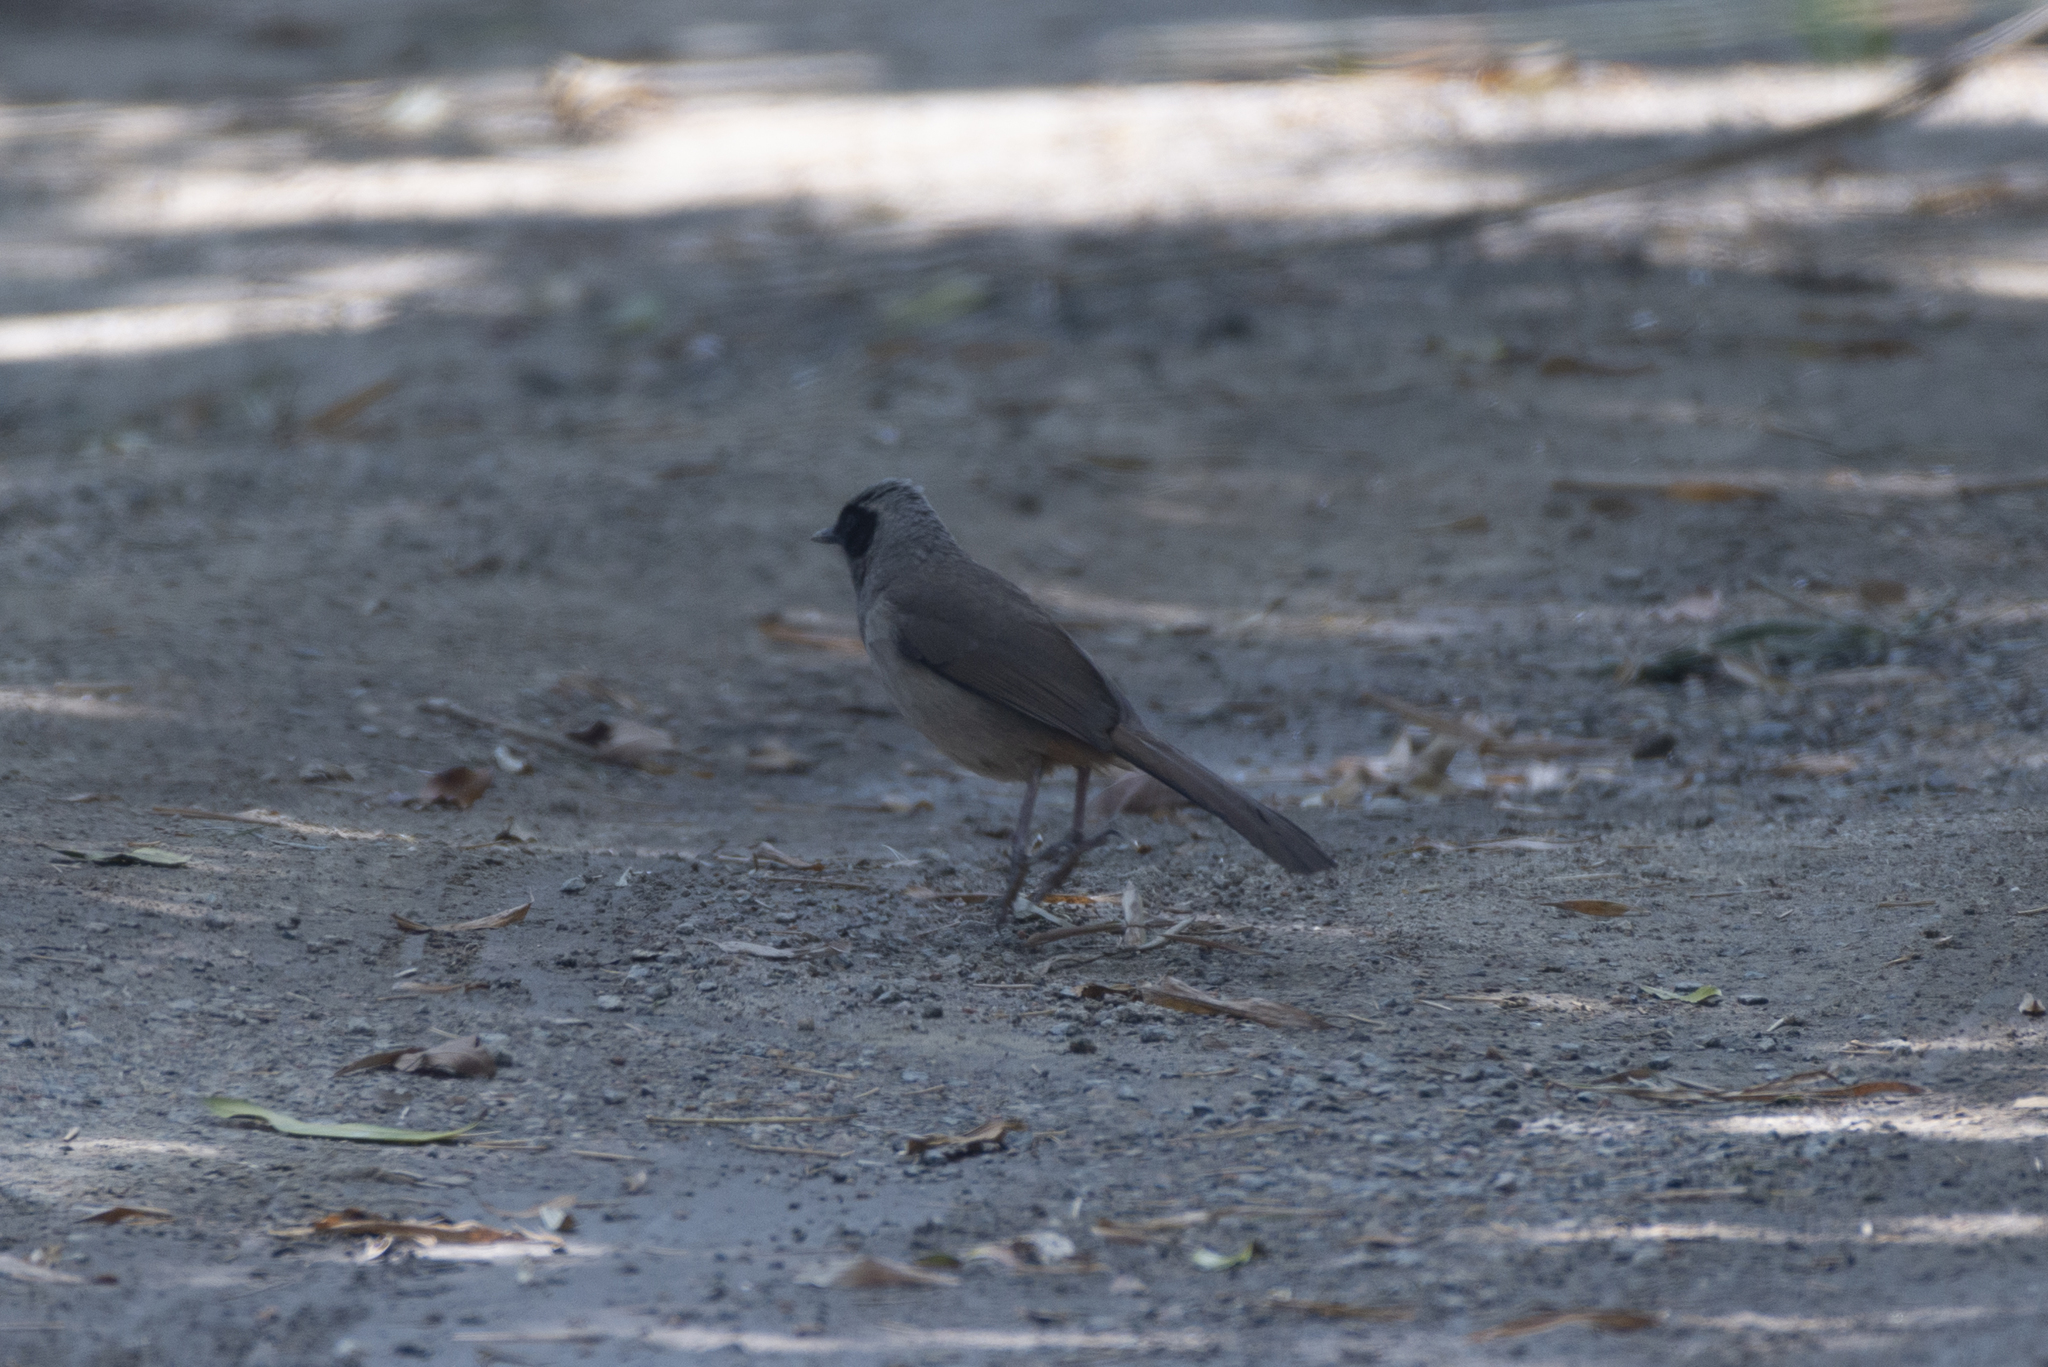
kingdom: Animalia
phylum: Chordata
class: Aves
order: Passeriformes
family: Leiothrichidae
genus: Garrulax
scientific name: Garrulax perspicillatus
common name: Masked laughingthrush
